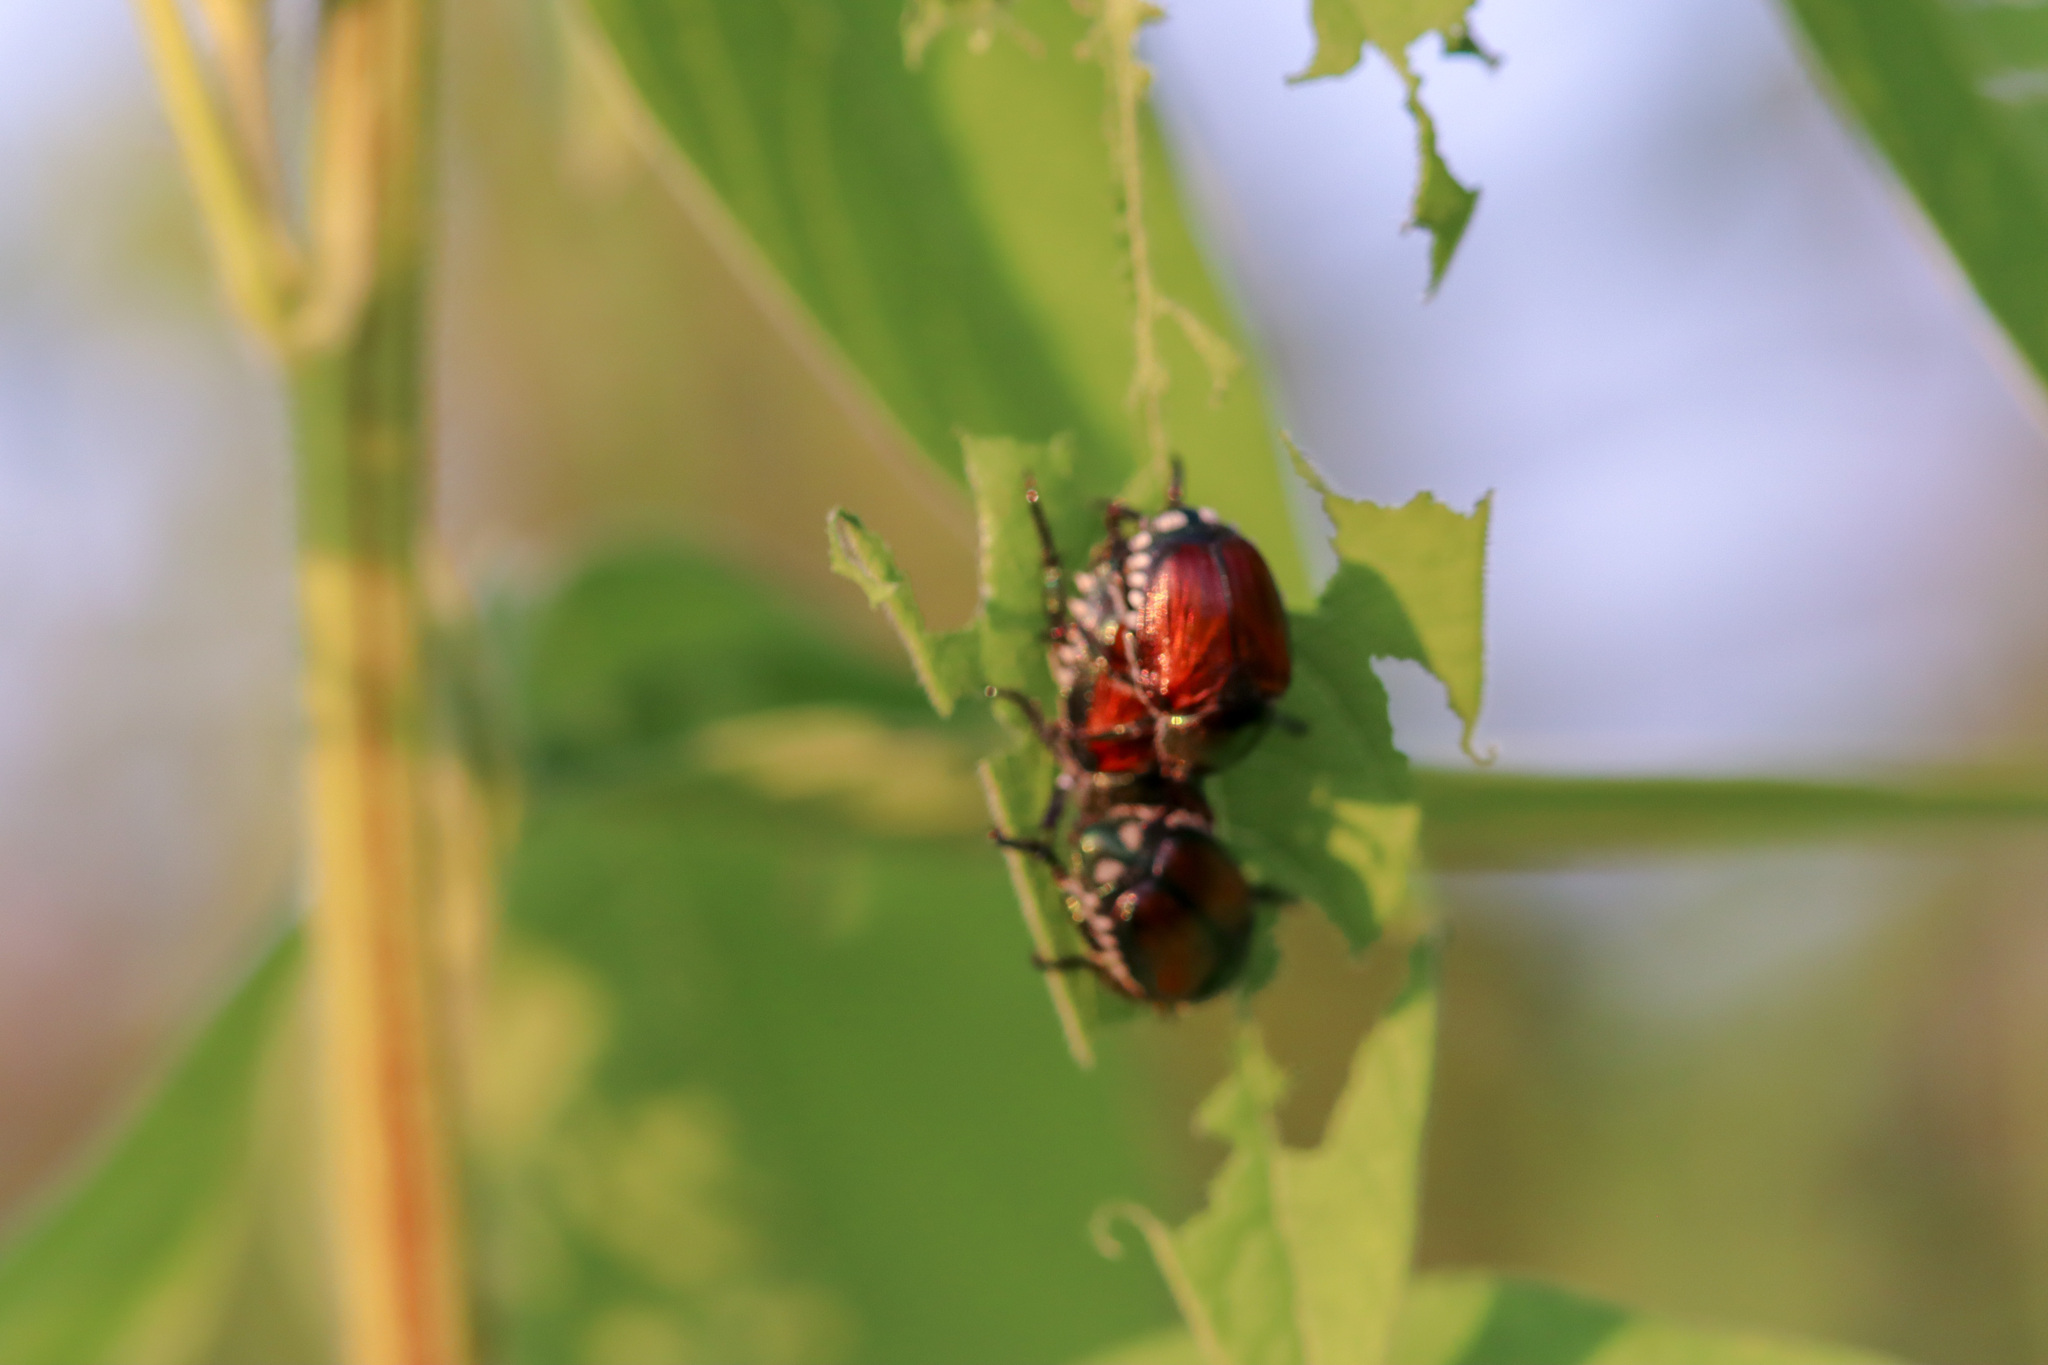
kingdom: Animalia
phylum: Arthropoda
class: Insecta
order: Coleoptera
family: Scarabaeidae
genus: Popillia
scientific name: Popillia japonica
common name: Japanese beetle
